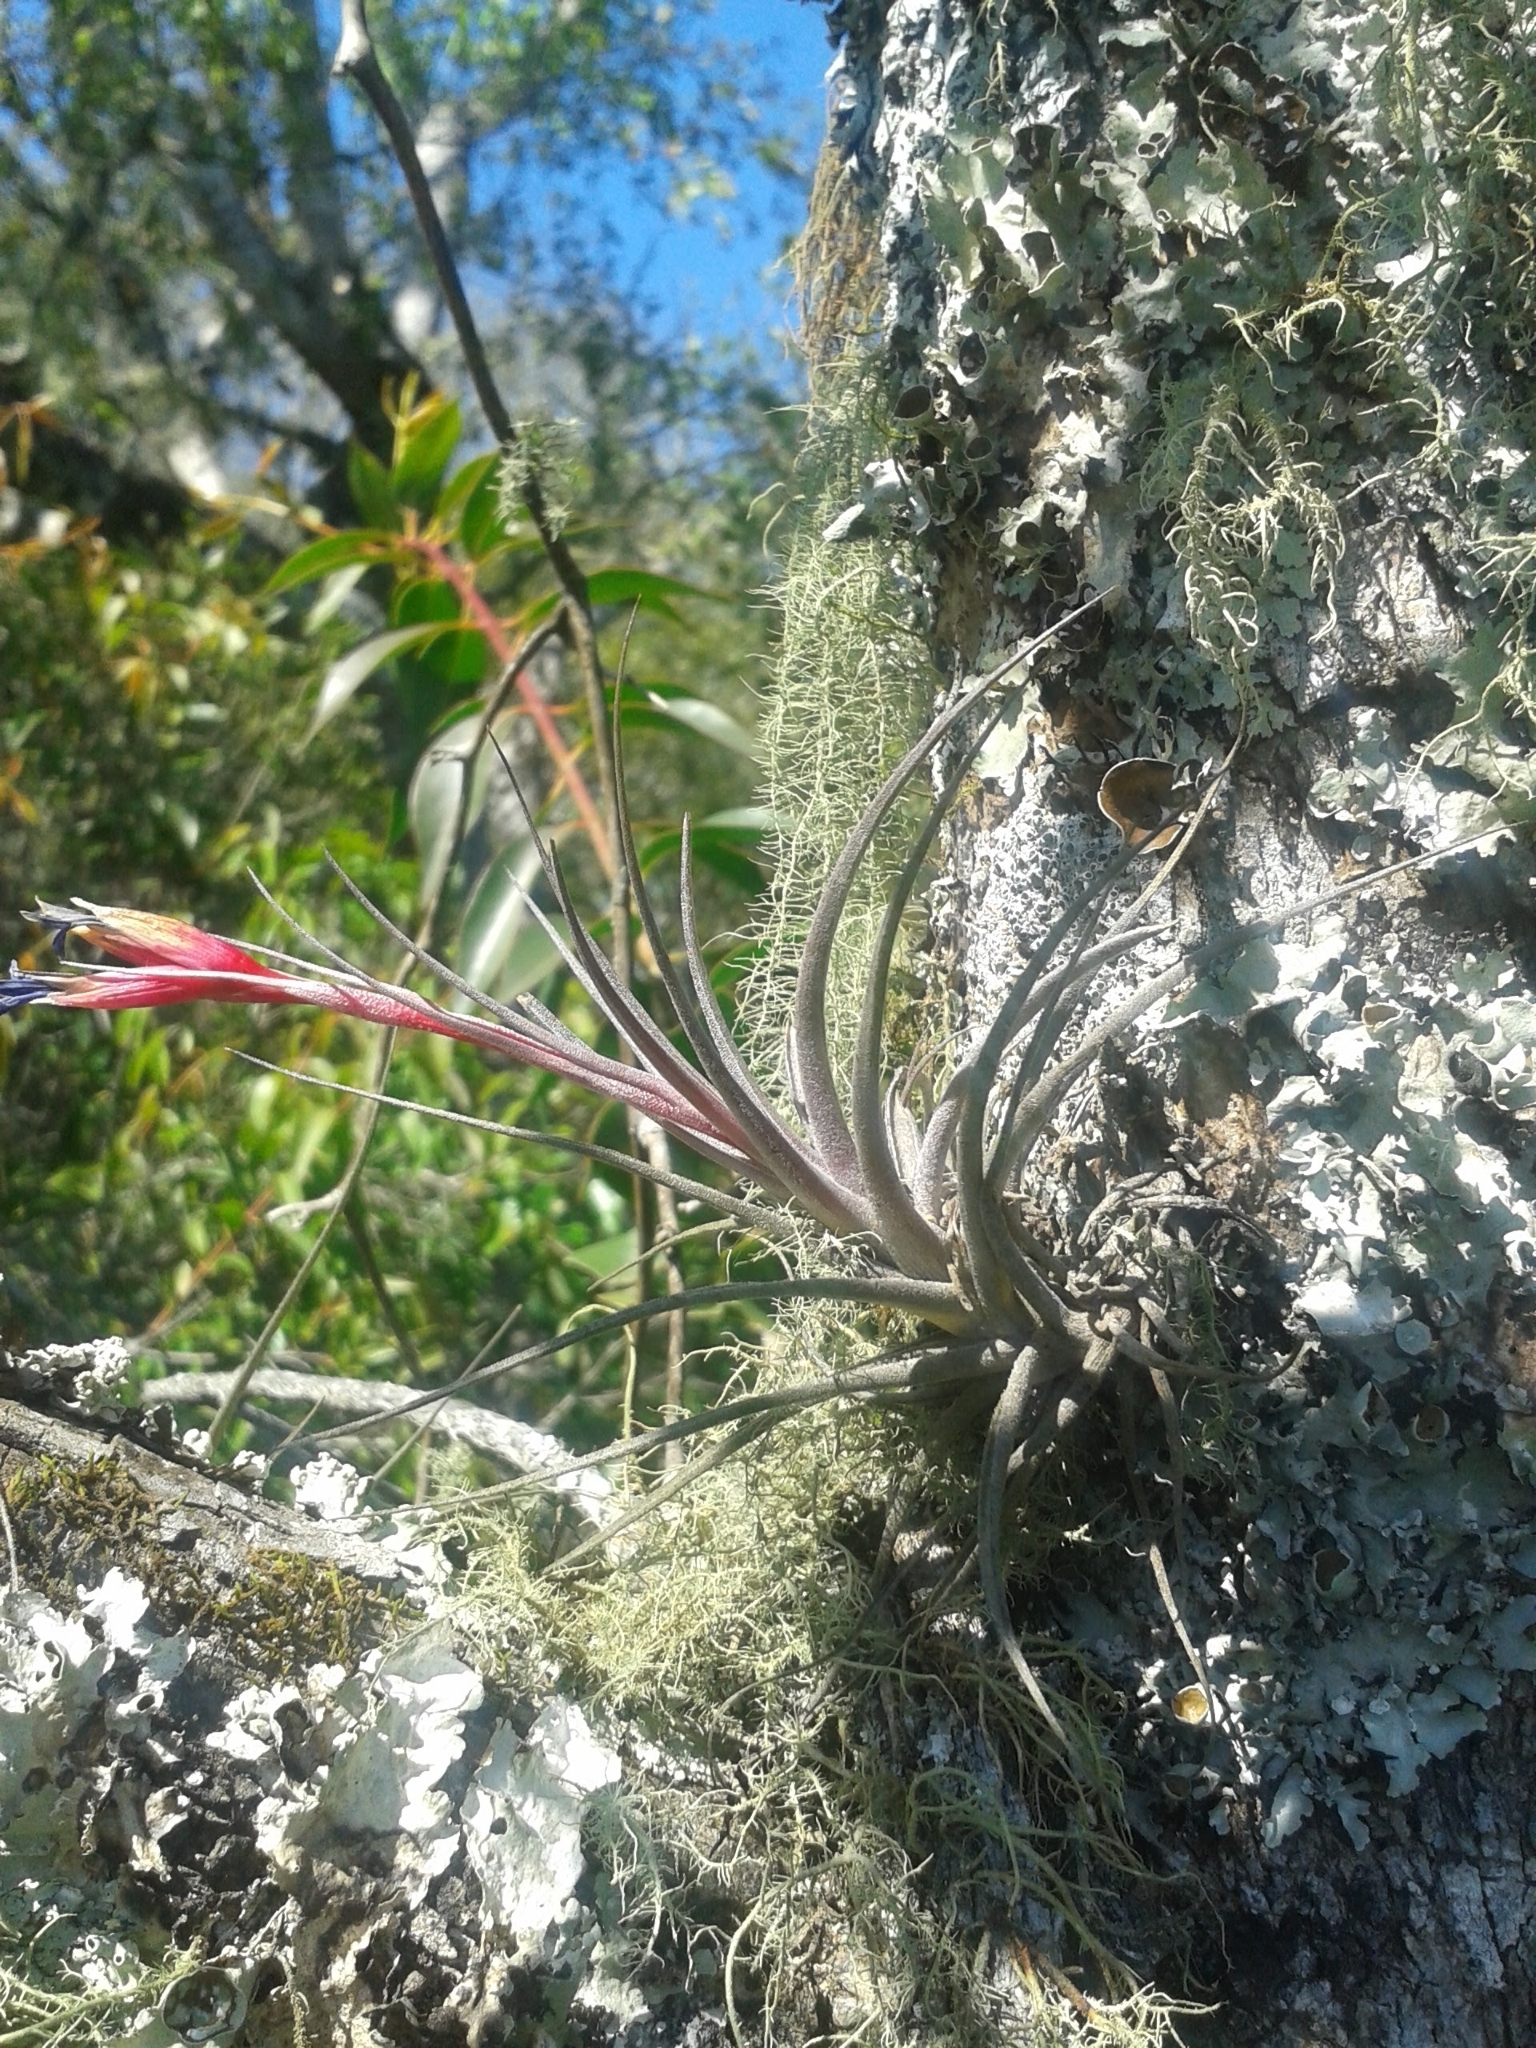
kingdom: Plantae
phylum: Tracheophyta
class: Liliopsida
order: Poales
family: Bromeliaceae
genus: Tillandsia
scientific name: Tillandsia aeranthos
